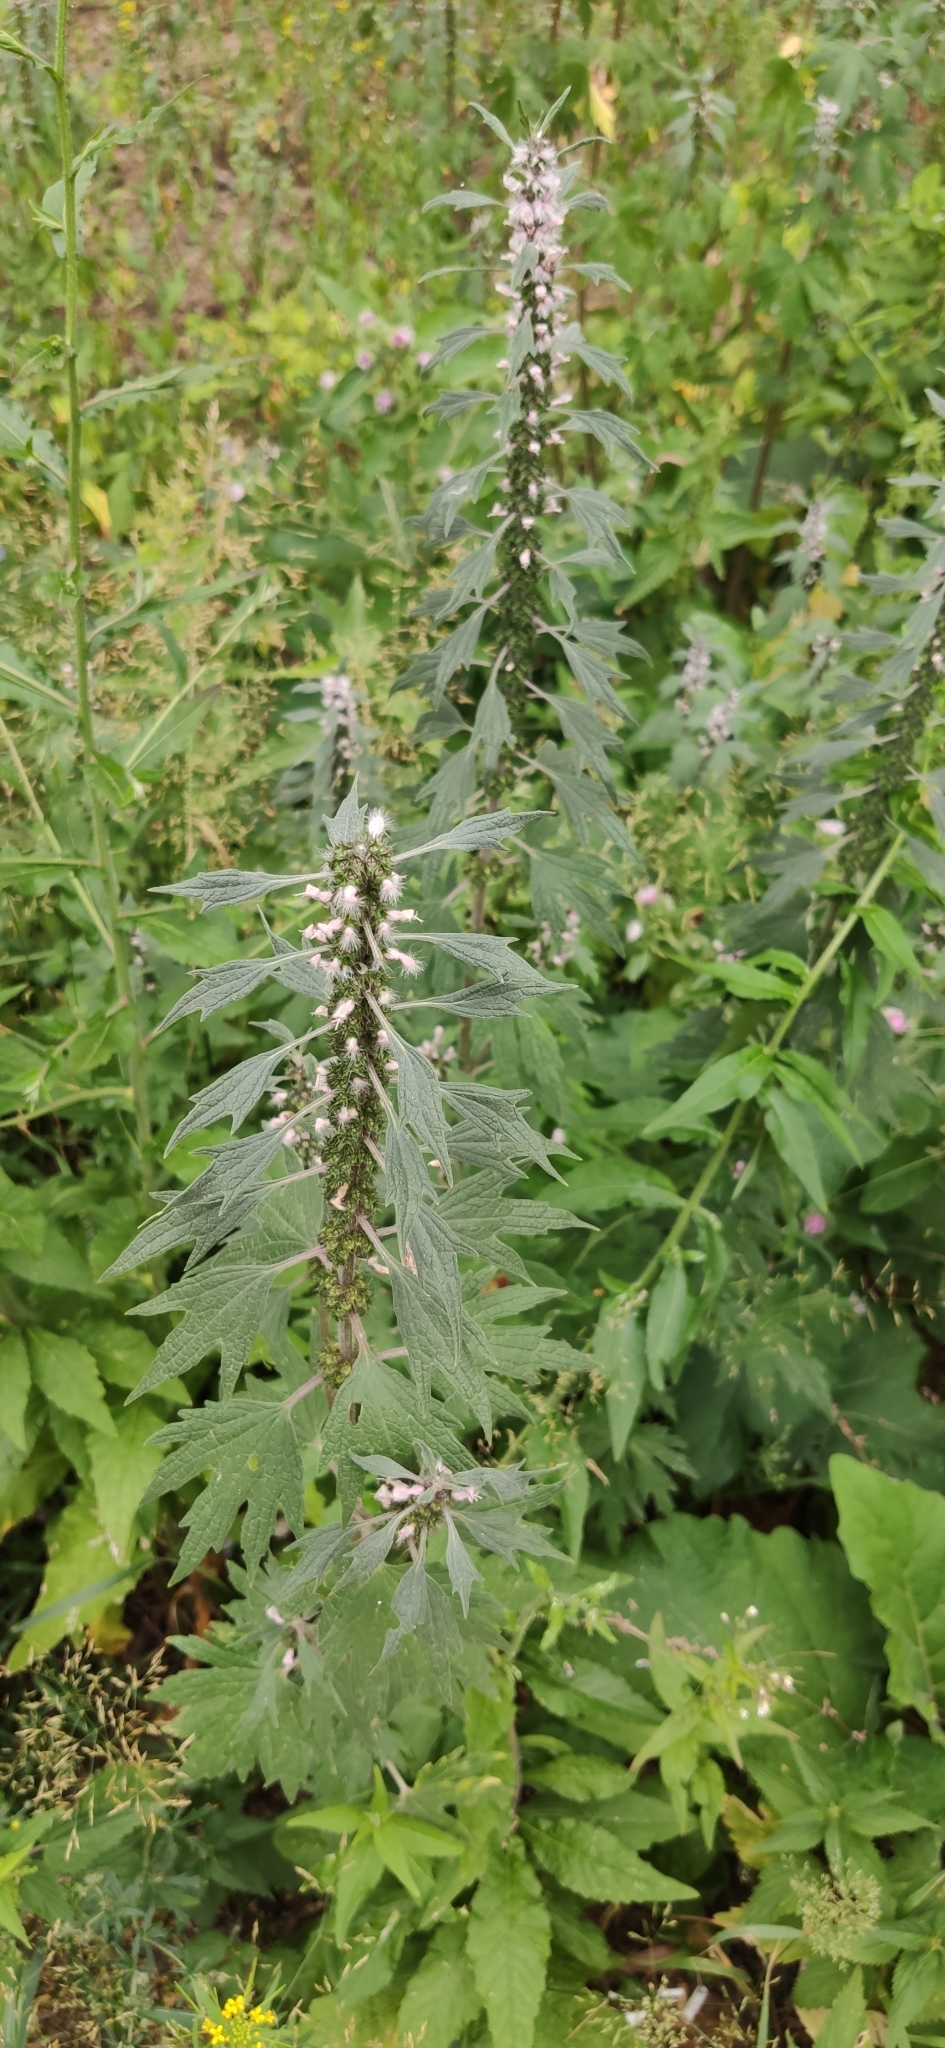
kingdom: Plantae
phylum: Tracheophyta
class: Magnoliopsida
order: Lamiales
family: Lamiaceae
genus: Leonurus
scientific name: Leonurus quinquelobatus
